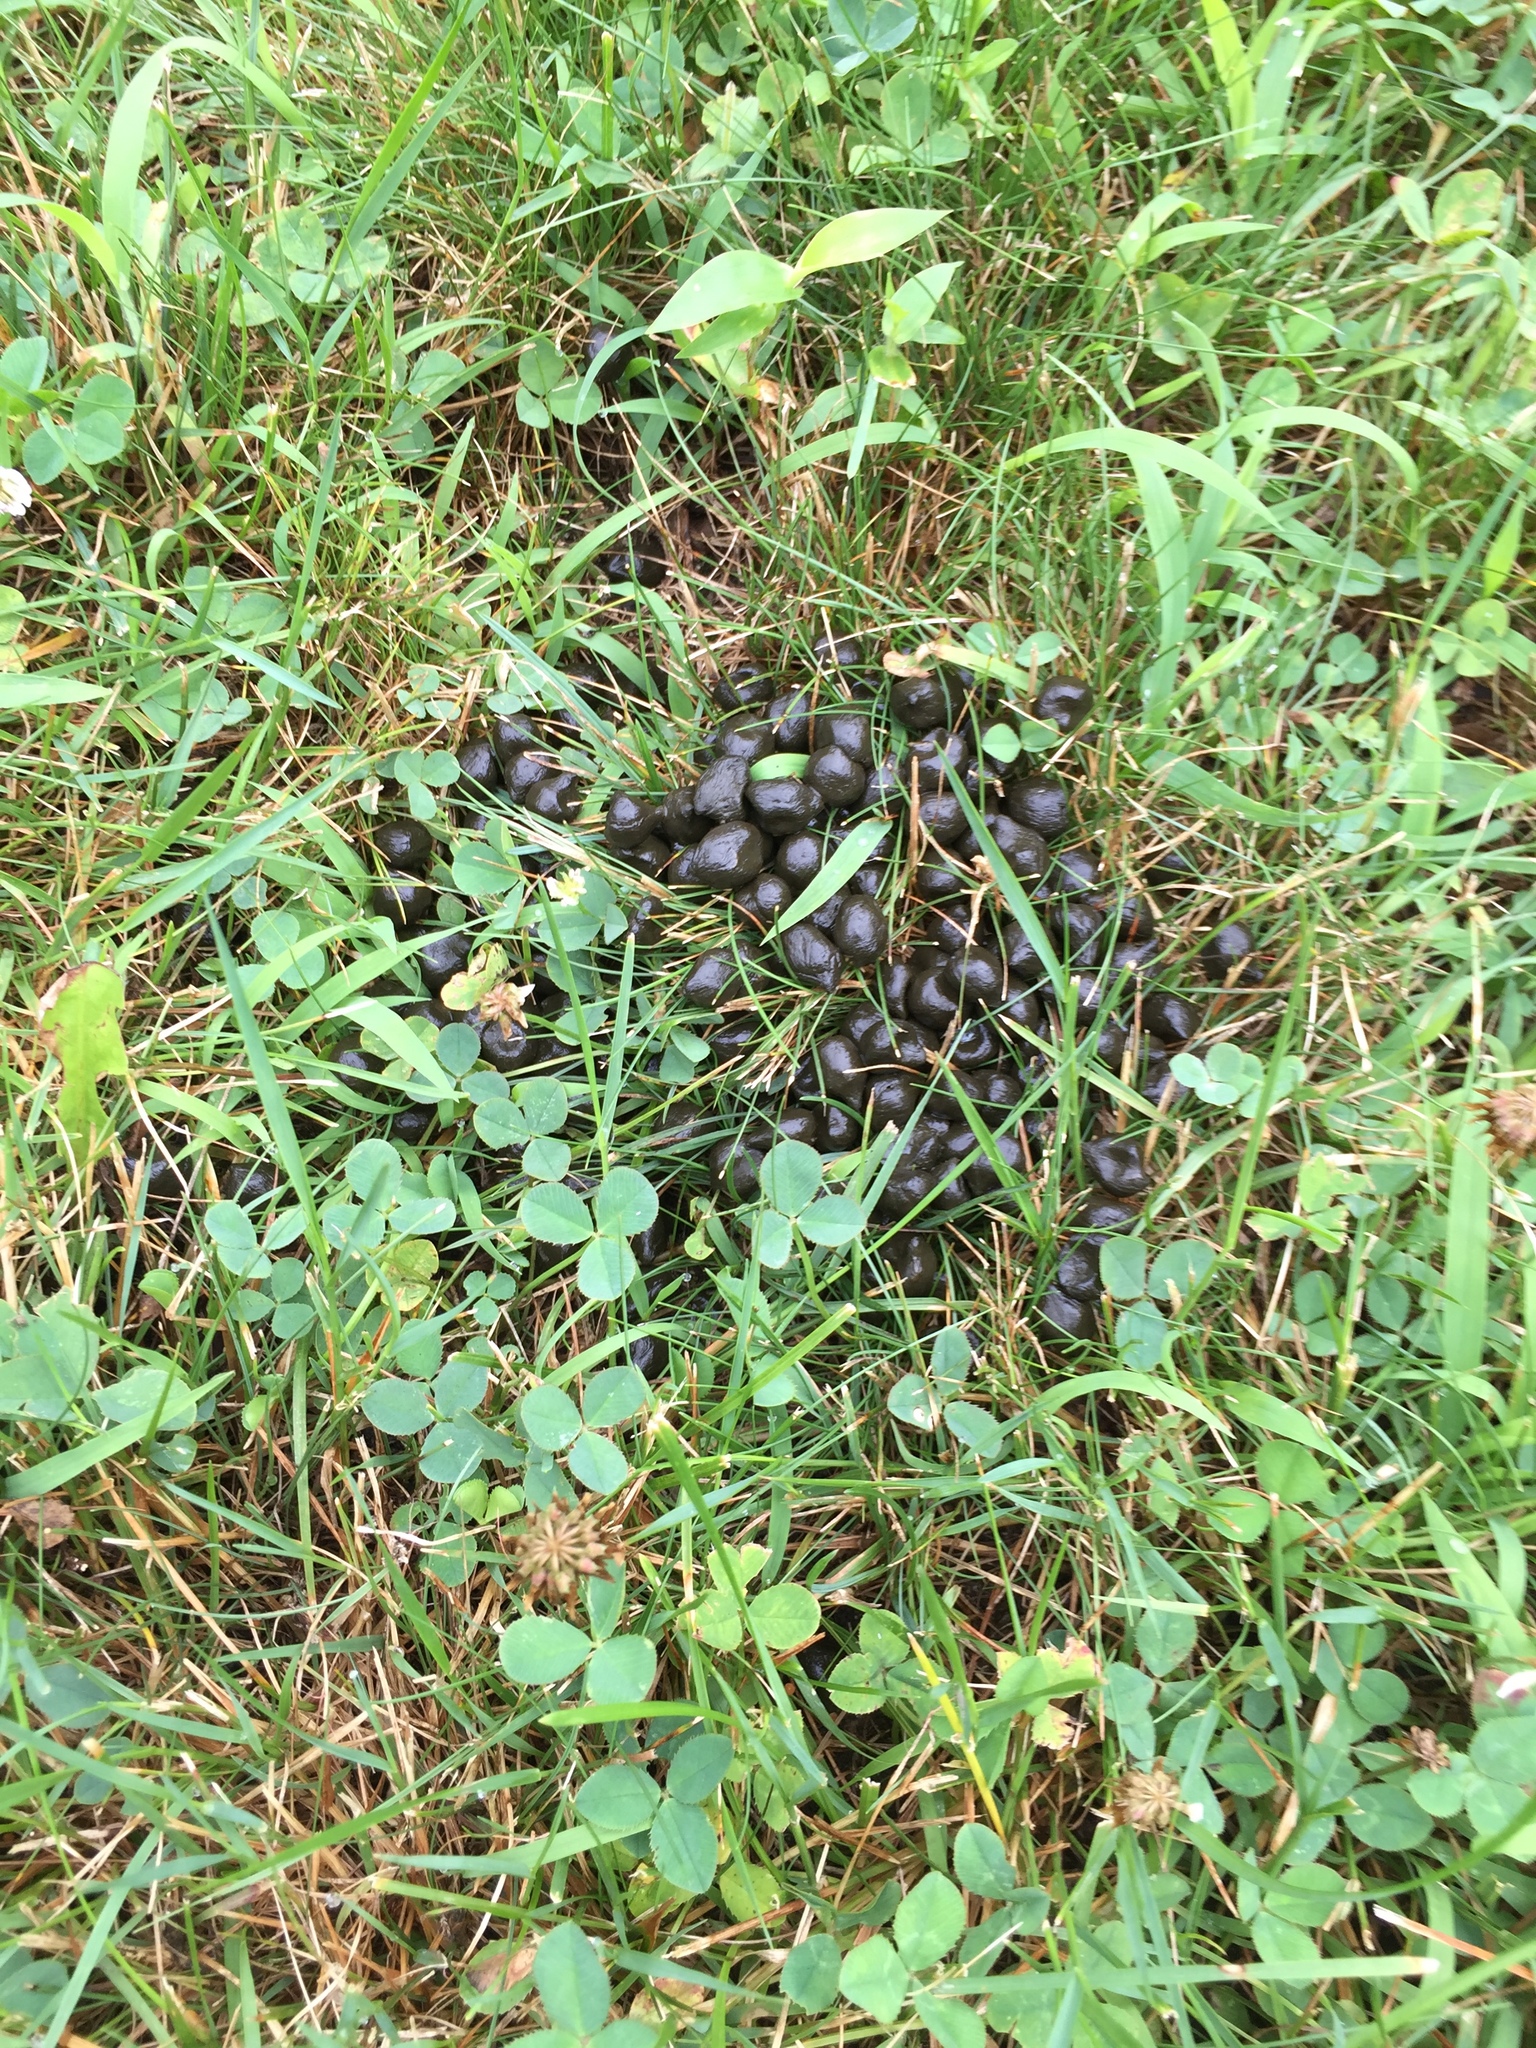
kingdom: Animalia
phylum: Chordata
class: Mammalia
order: Artiodactyla
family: Cervidae
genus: Odocoileus
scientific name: Odocoileus virginianus
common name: White-tailed deer
